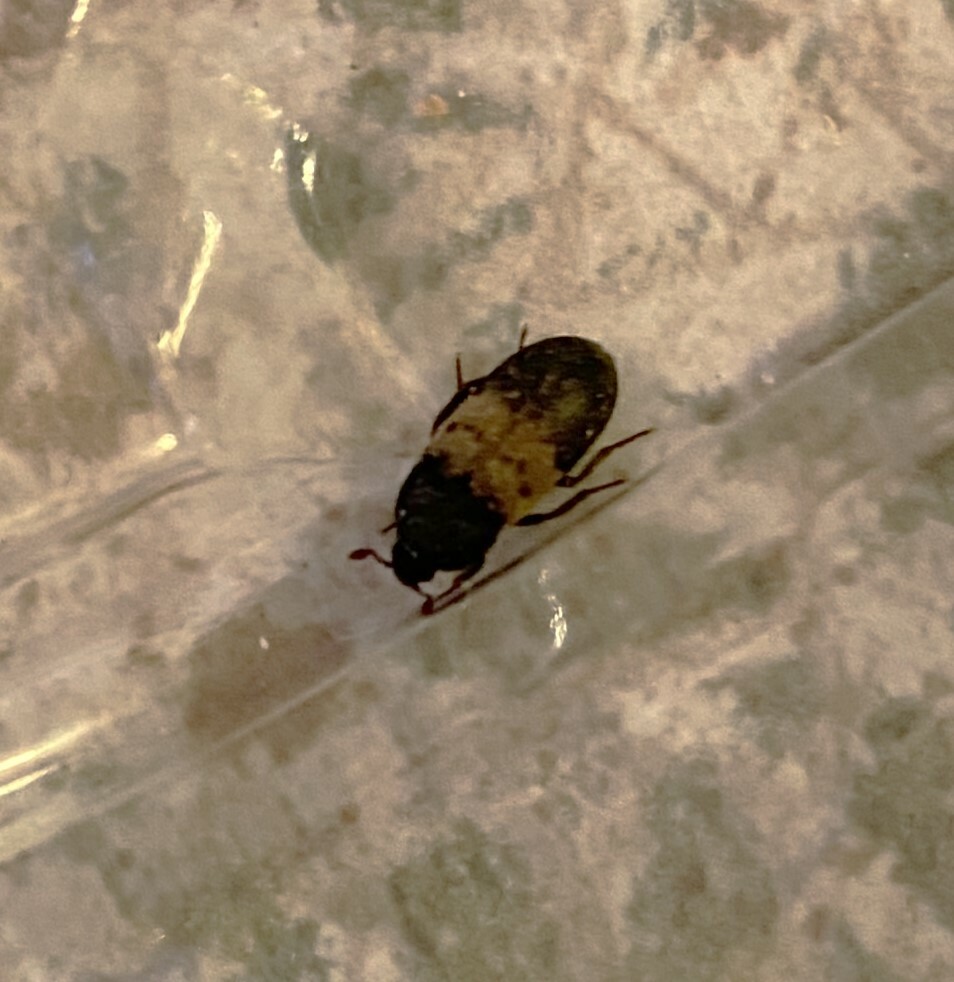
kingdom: Animalia
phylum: Arthropoda
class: Insecta
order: Coleoptera
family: Dermestidae
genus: Dermestes
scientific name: Dermestes lardarius
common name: Larder beetle
